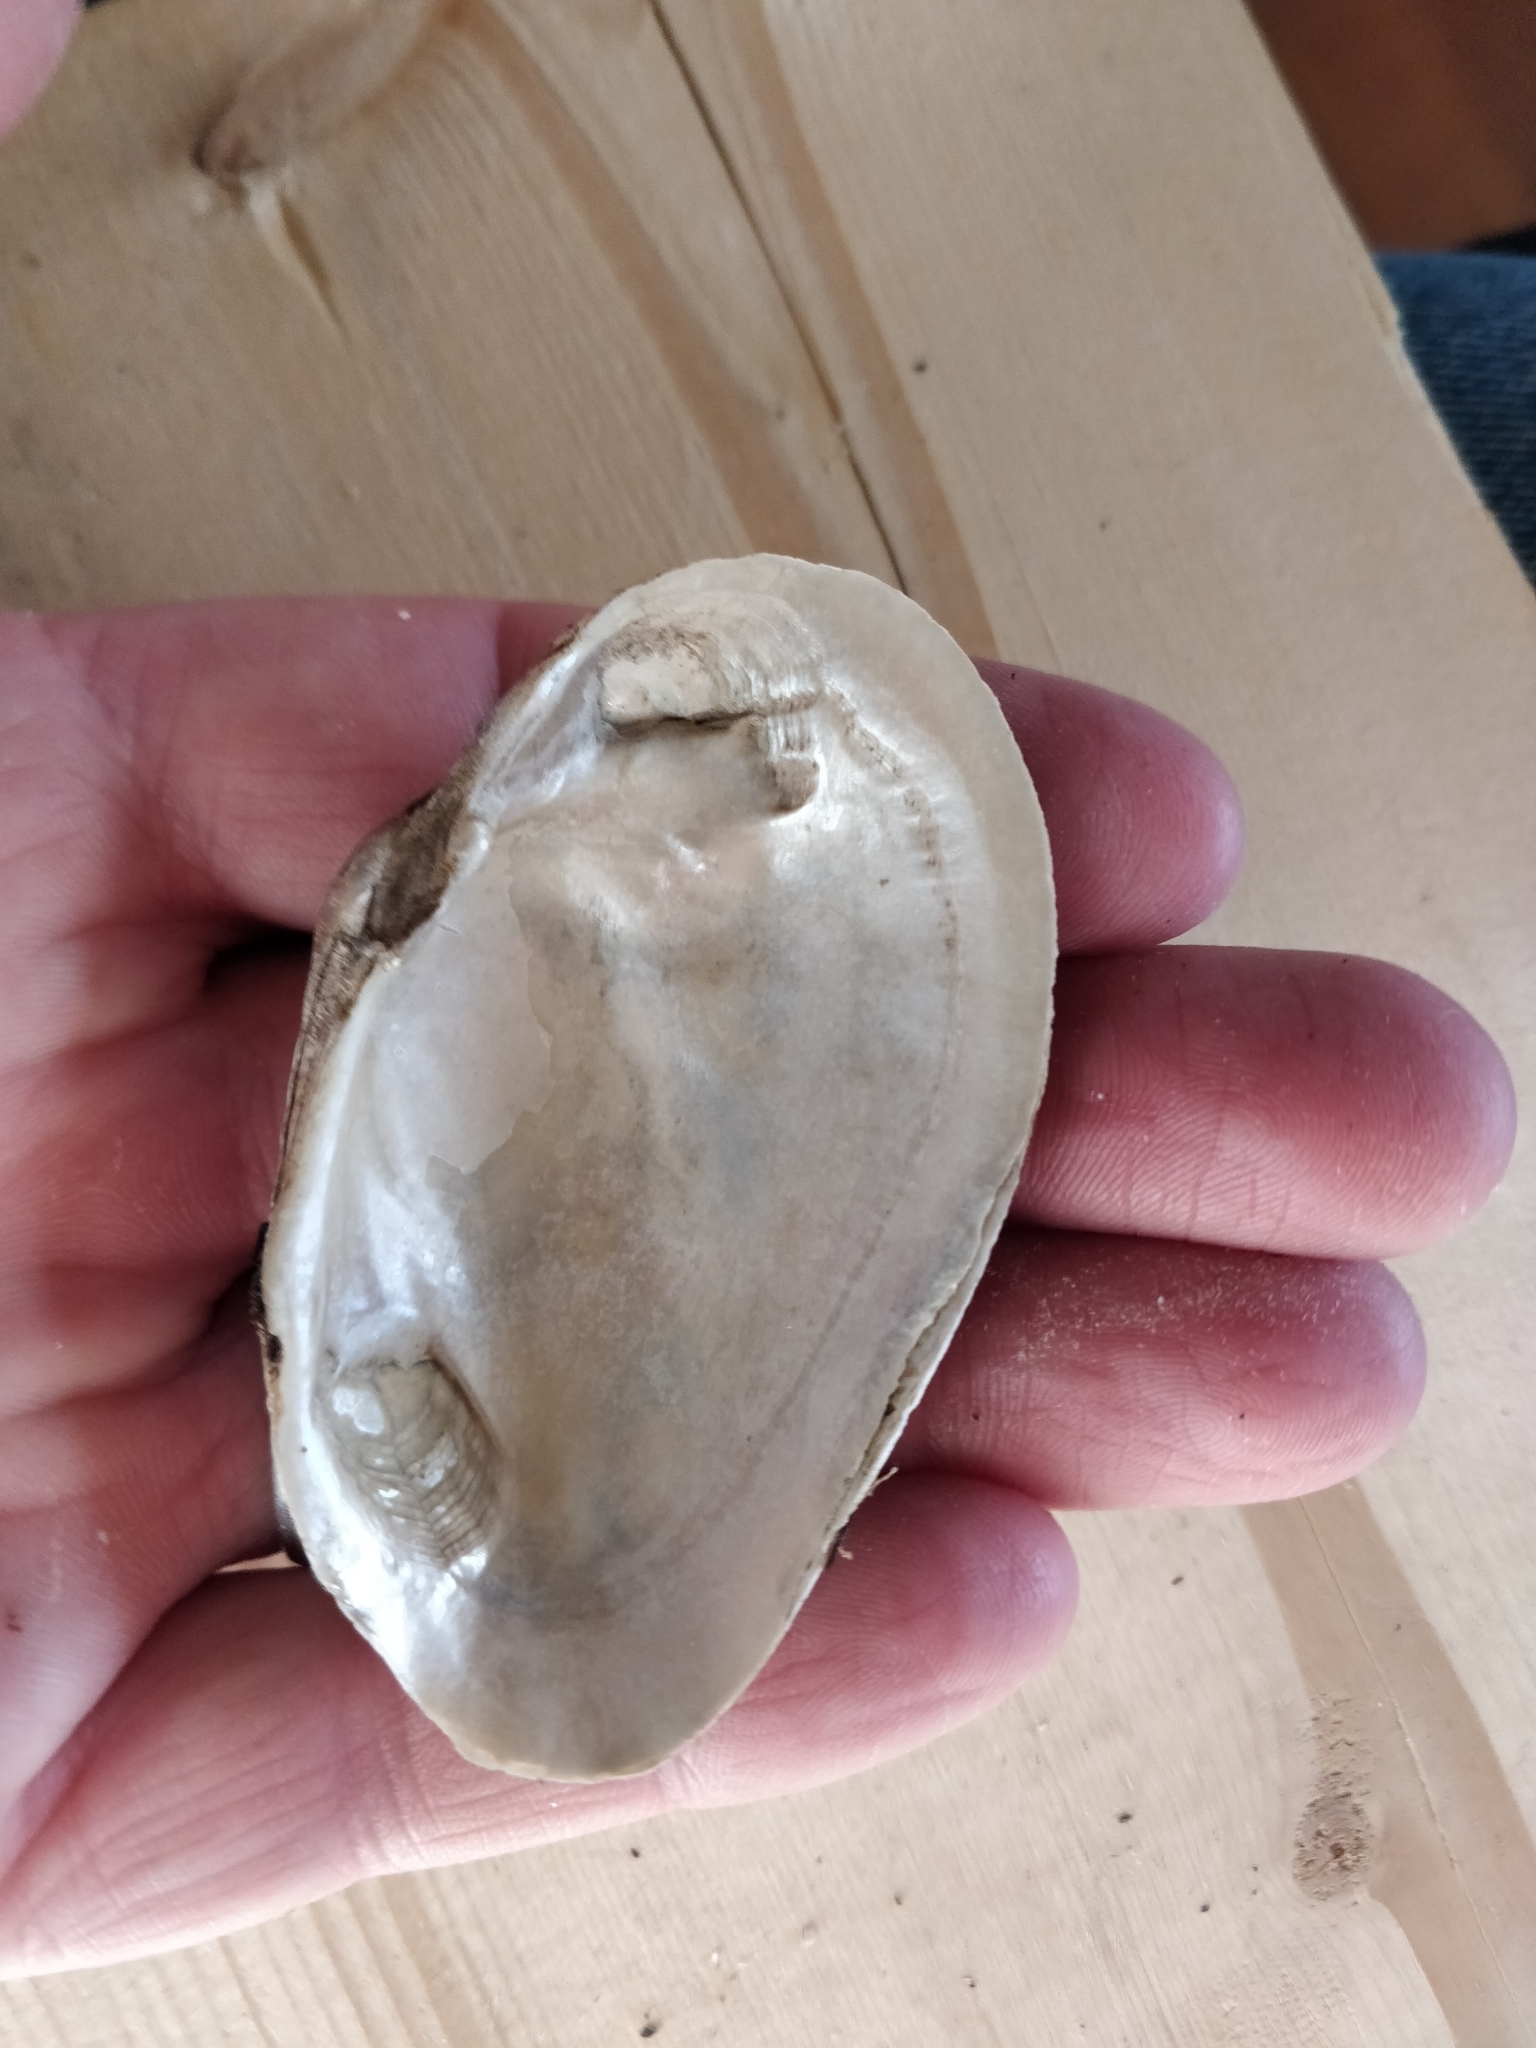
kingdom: Animalia
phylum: Mollusca
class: Bivalvia
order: Unionida
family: Unionidae
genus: Strophitus
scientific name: Strophitus undulatus
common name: Creeper
